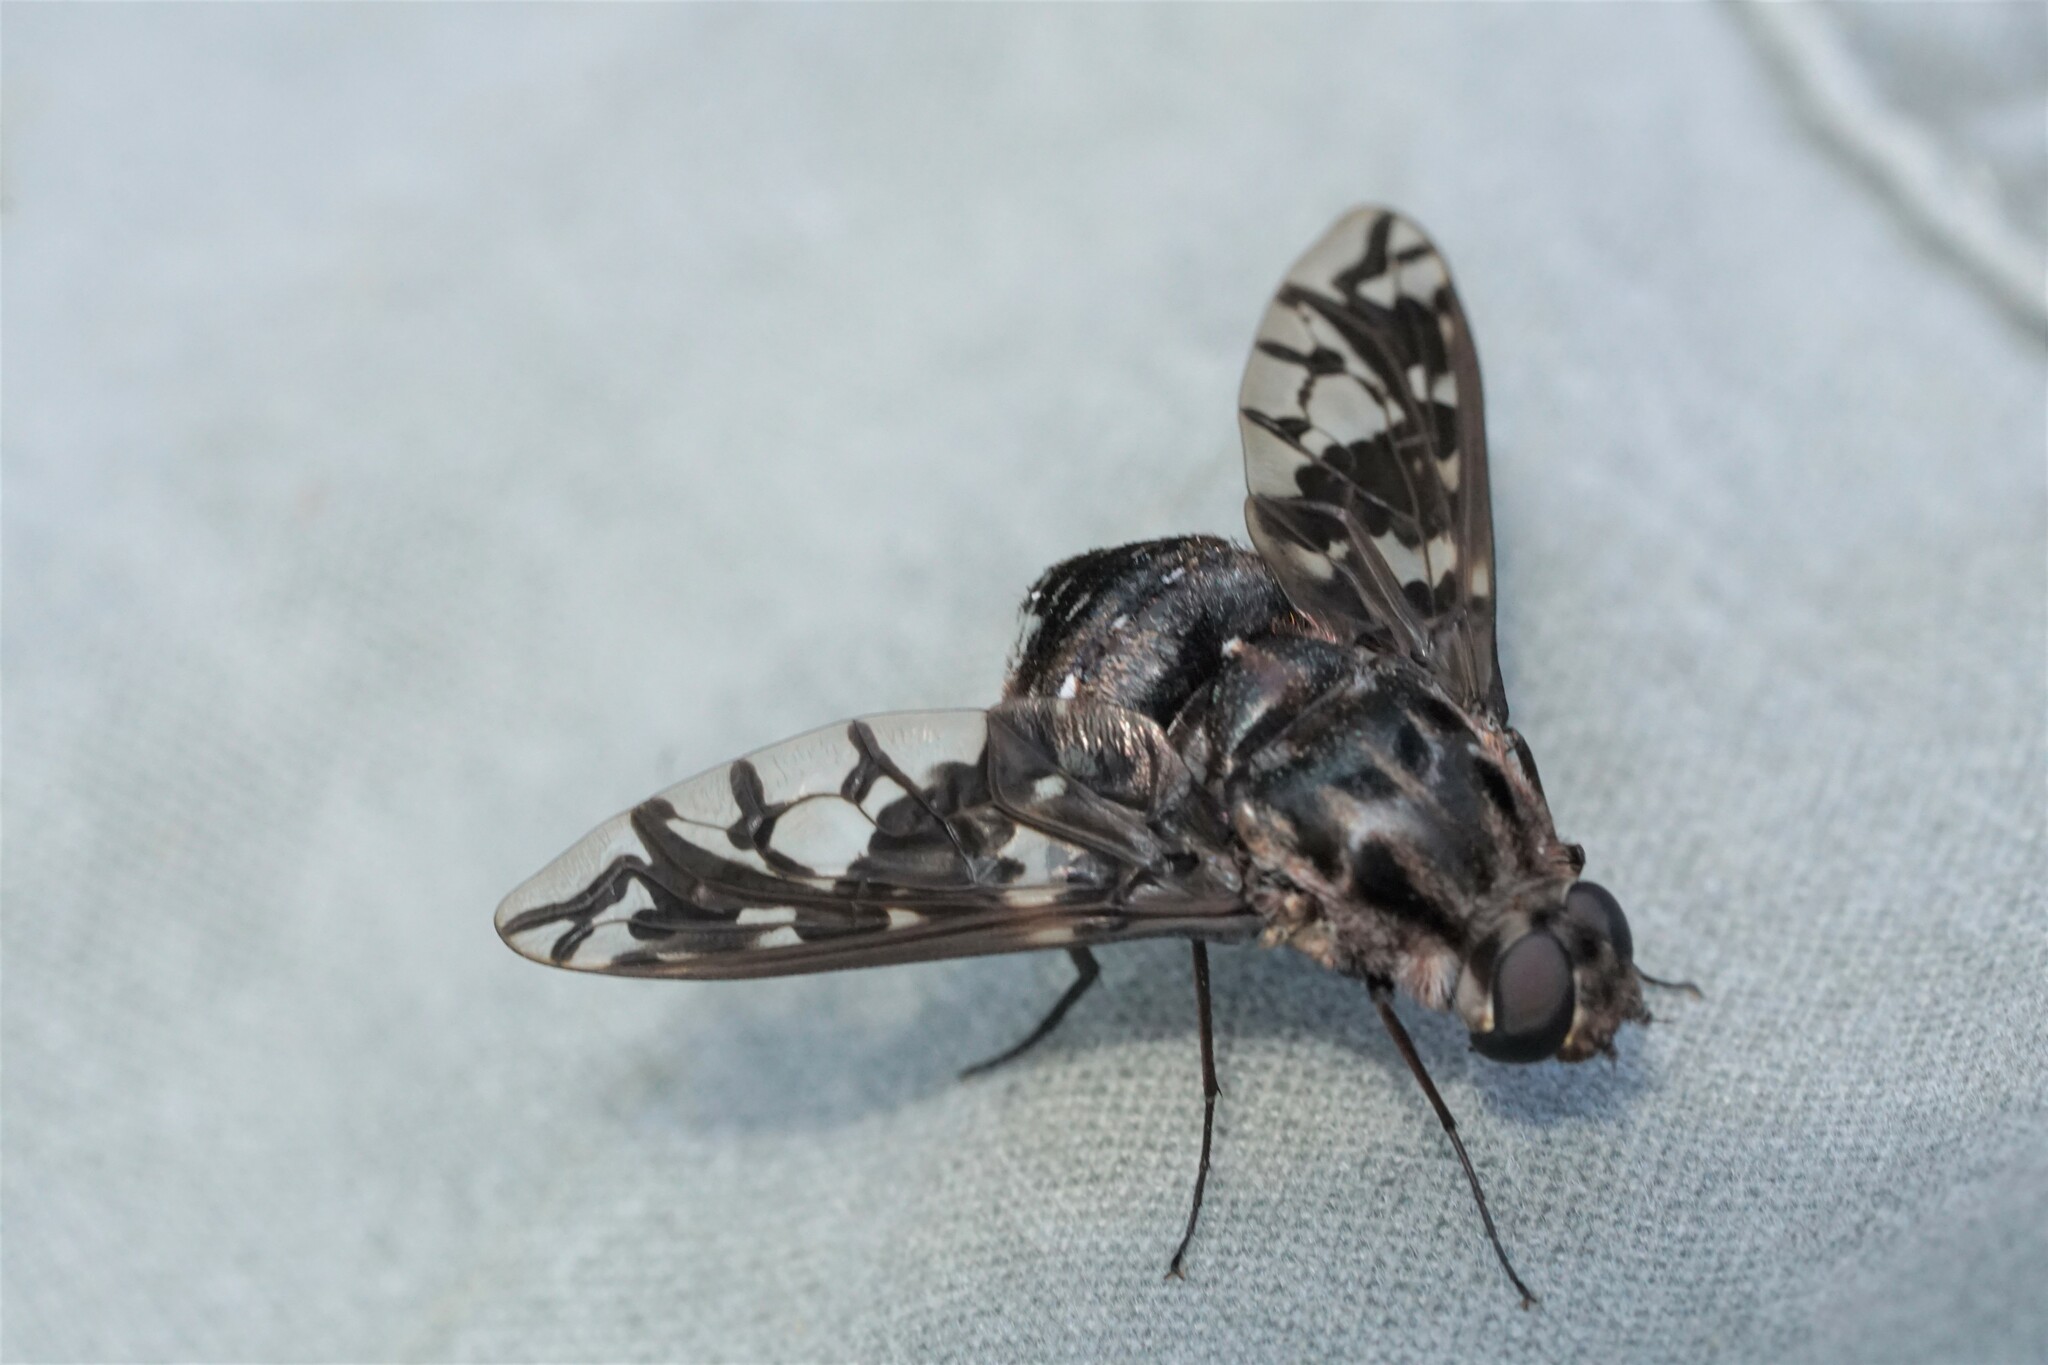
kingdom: Animalia
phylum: Arthropoda
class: Insecta
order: Diptera
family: Bombyliidae
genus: Xenox
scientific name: Xenox tigrinus
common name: Tiger bee fly
